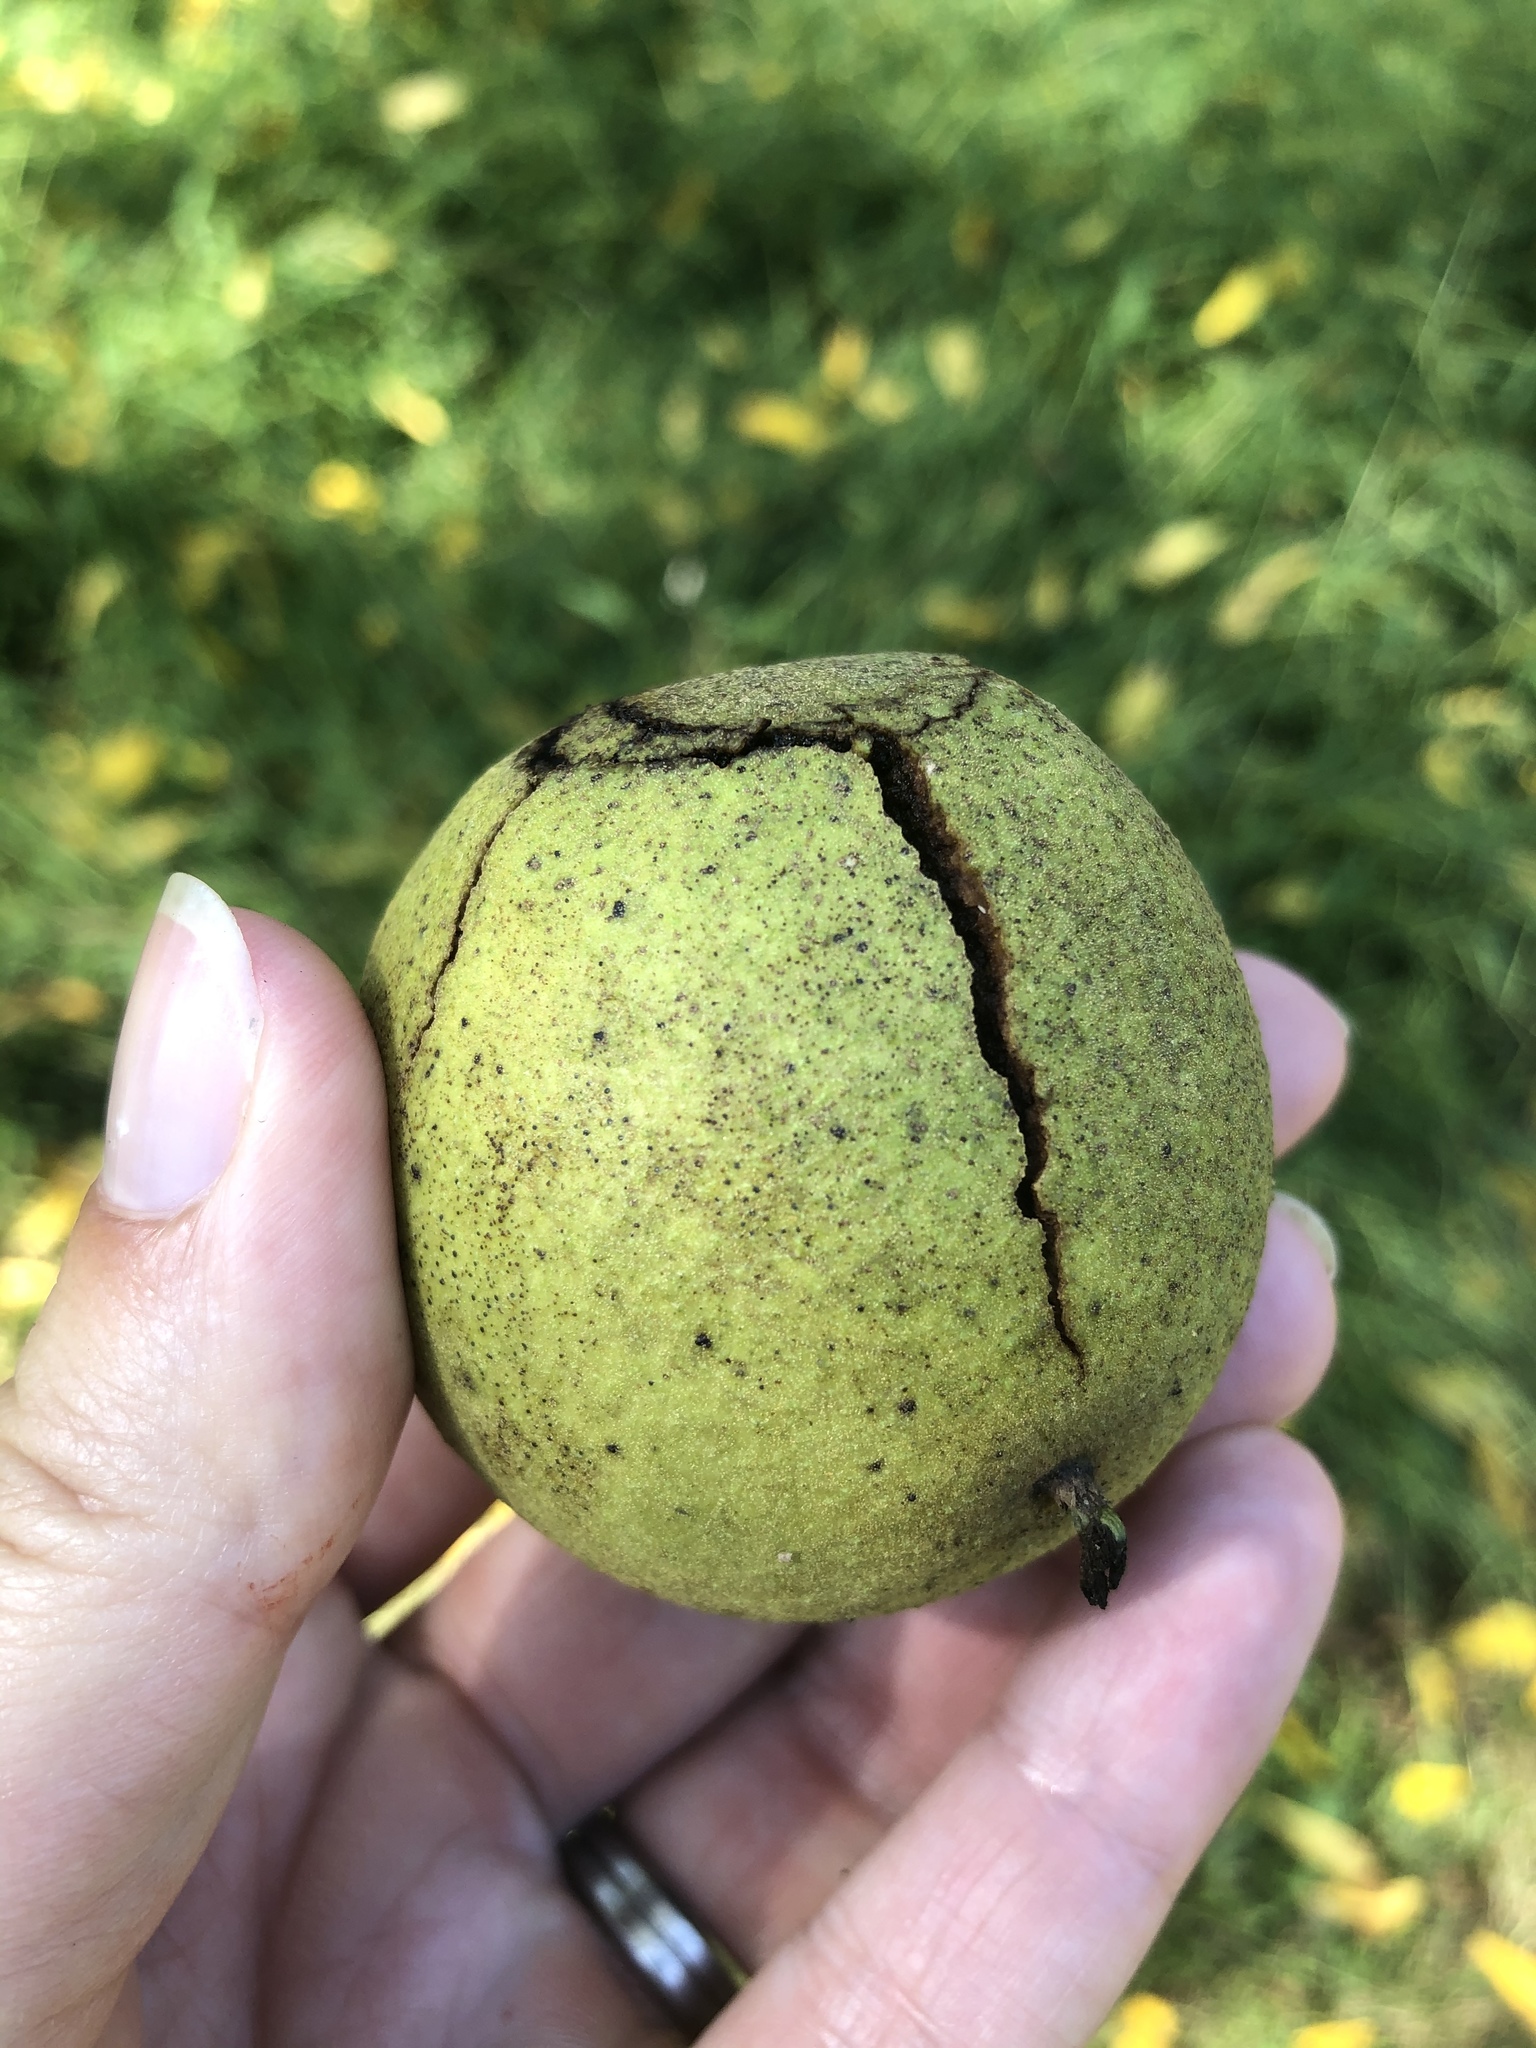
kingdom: Plantae
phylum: Tracheophyta
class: Magnoliopsida
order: Fagales
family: Juglandaceae
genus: Juglans
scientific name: Juglans nigra
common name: Black walnut
